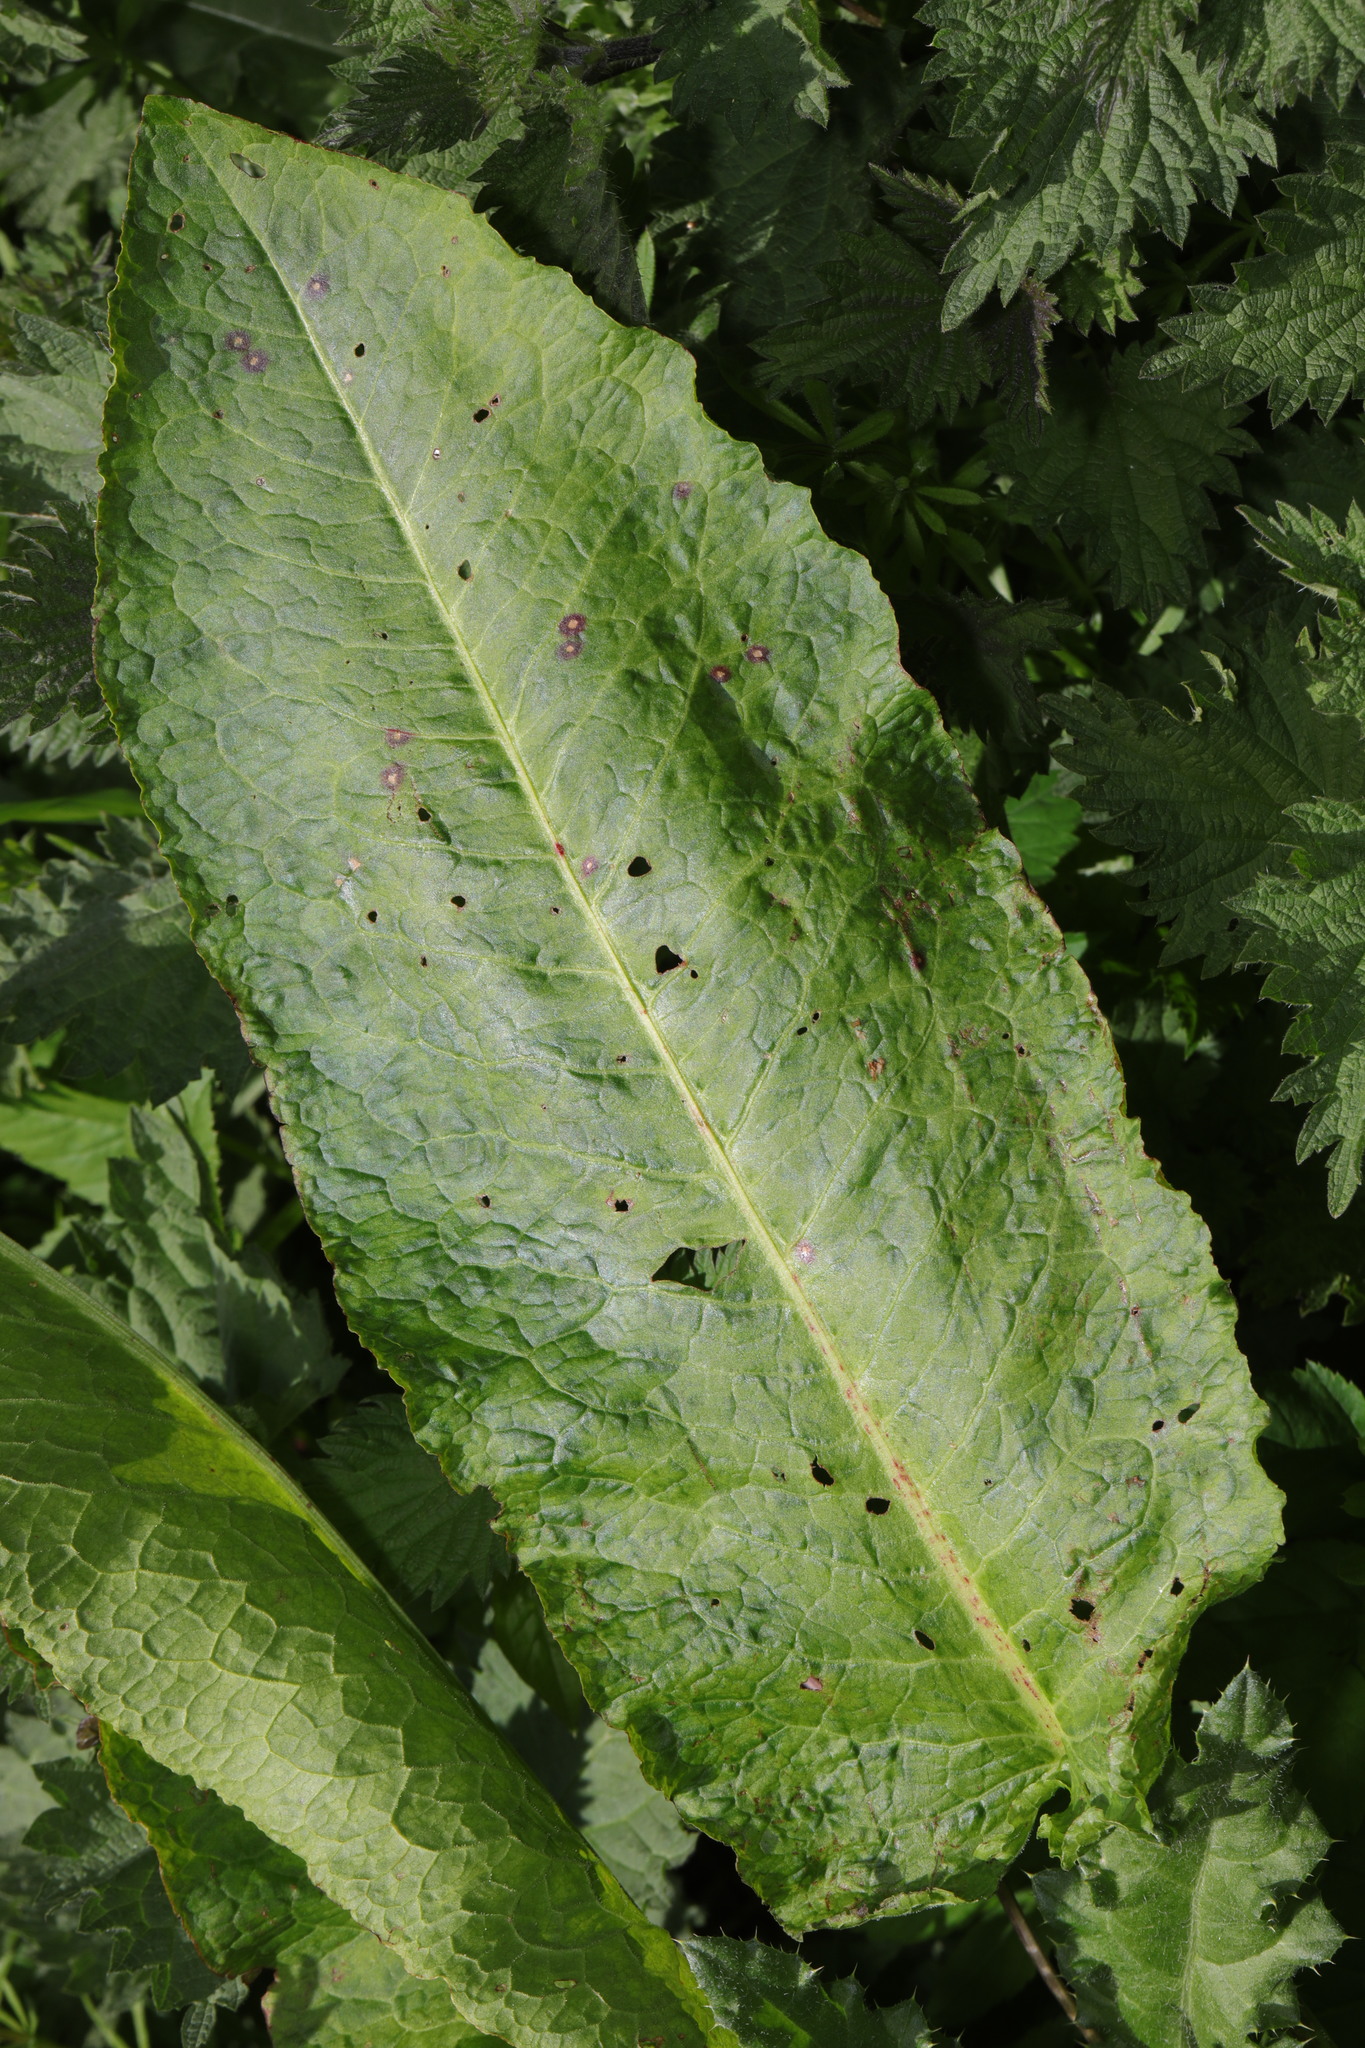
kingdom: Plantae
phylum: Tracheophyta
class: Magnoliopsida
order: Caryophyllales
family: Polygonaceae
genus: Rumex
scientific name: Rumex obtusifolius
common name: Bitter dock
